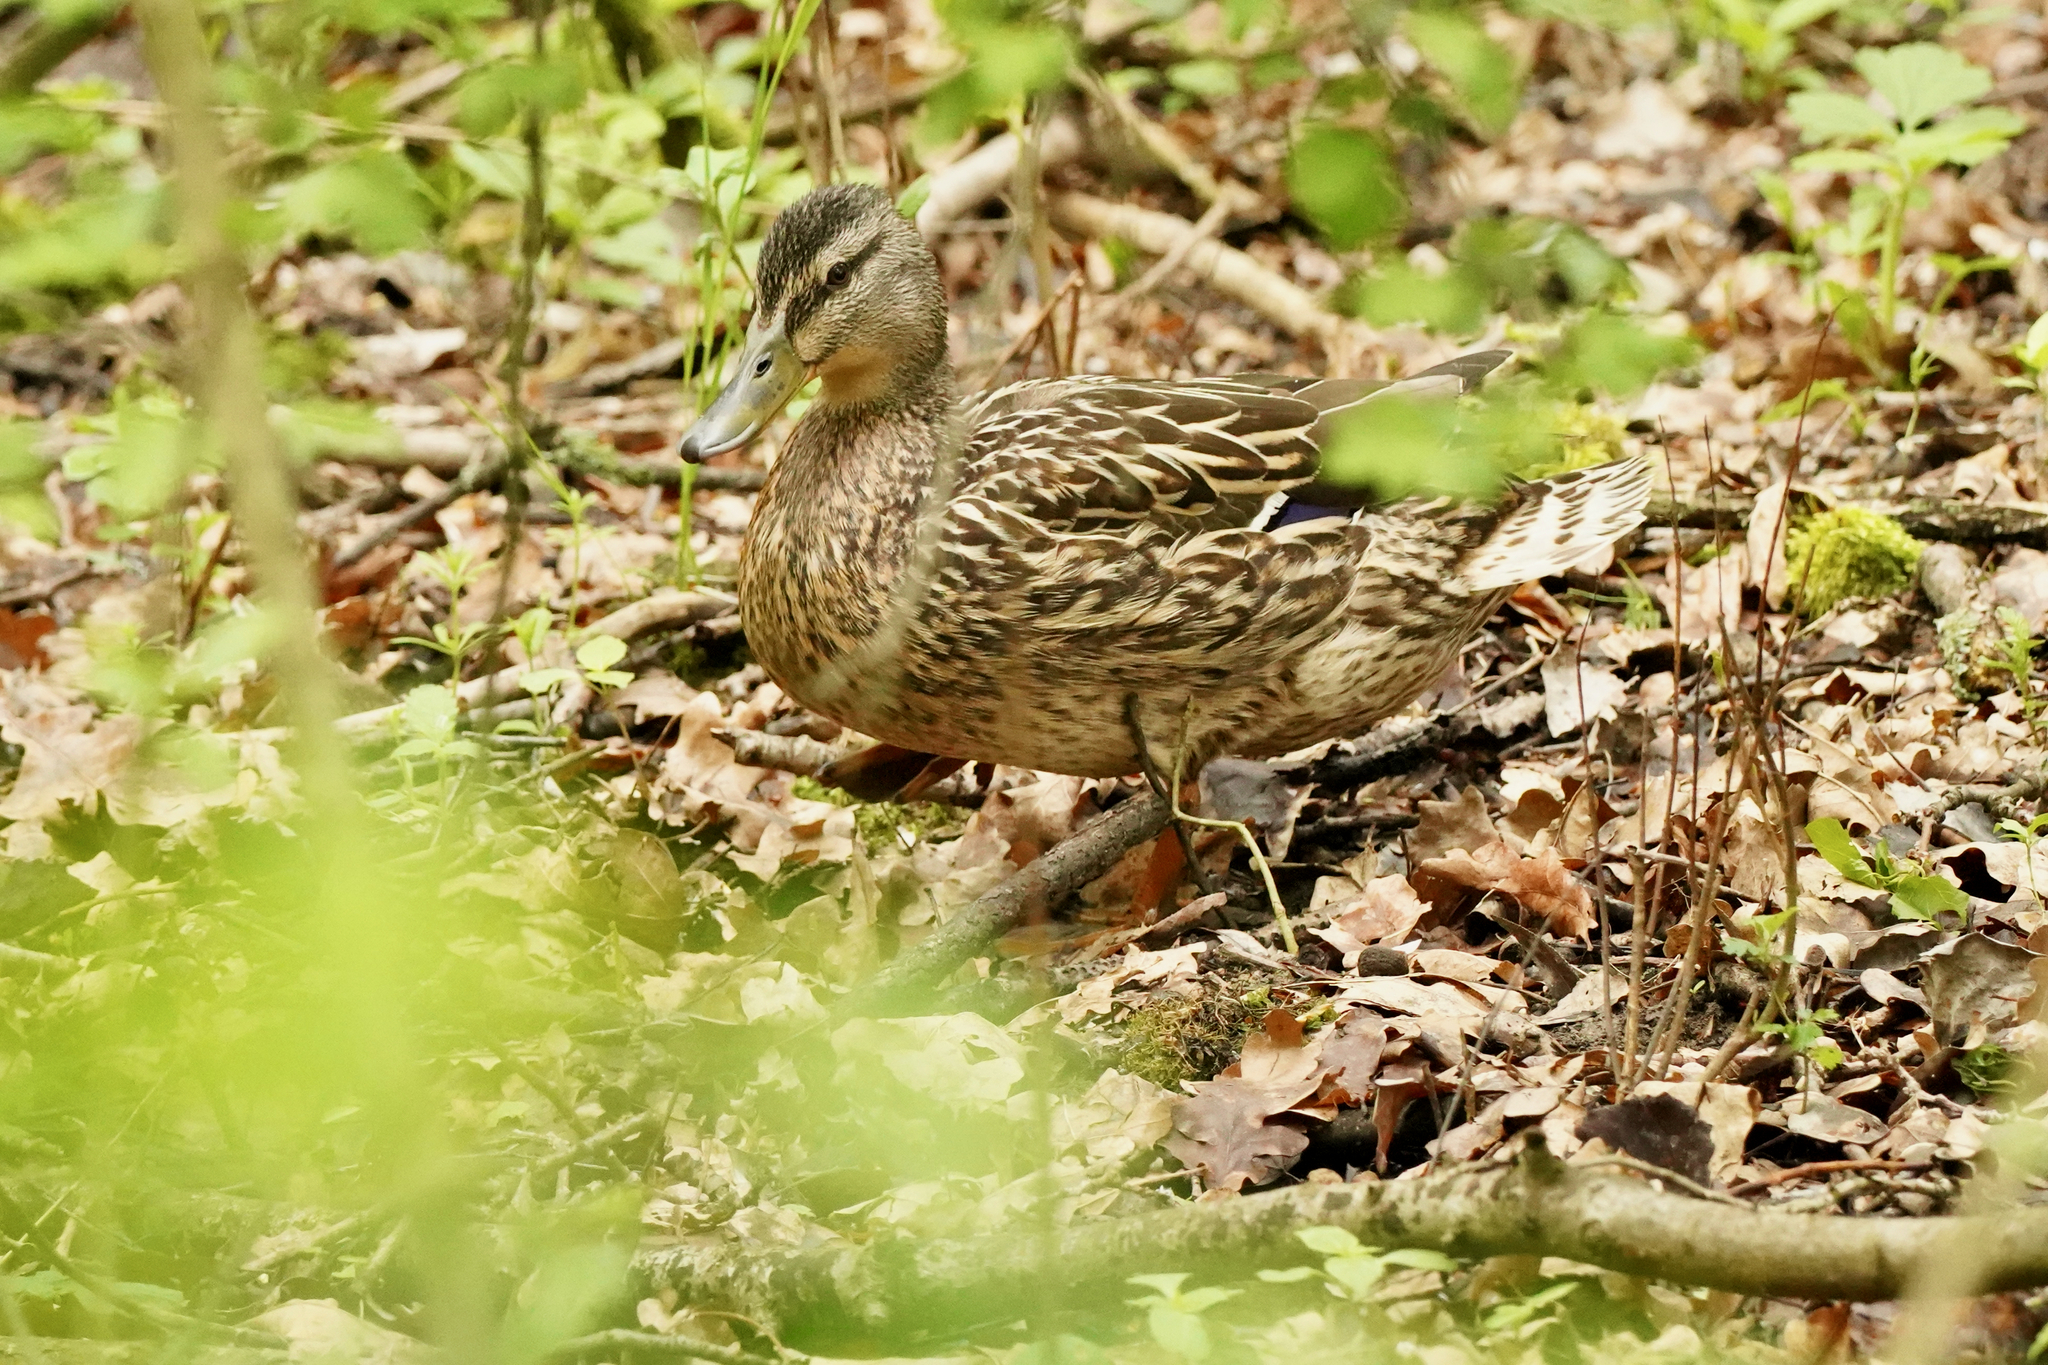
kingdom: Animalia
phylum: Chordata
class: Aves
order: Anseriformes
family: Anatidae
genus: Anas
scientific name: Anas platyrhynchos
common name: Mallard
